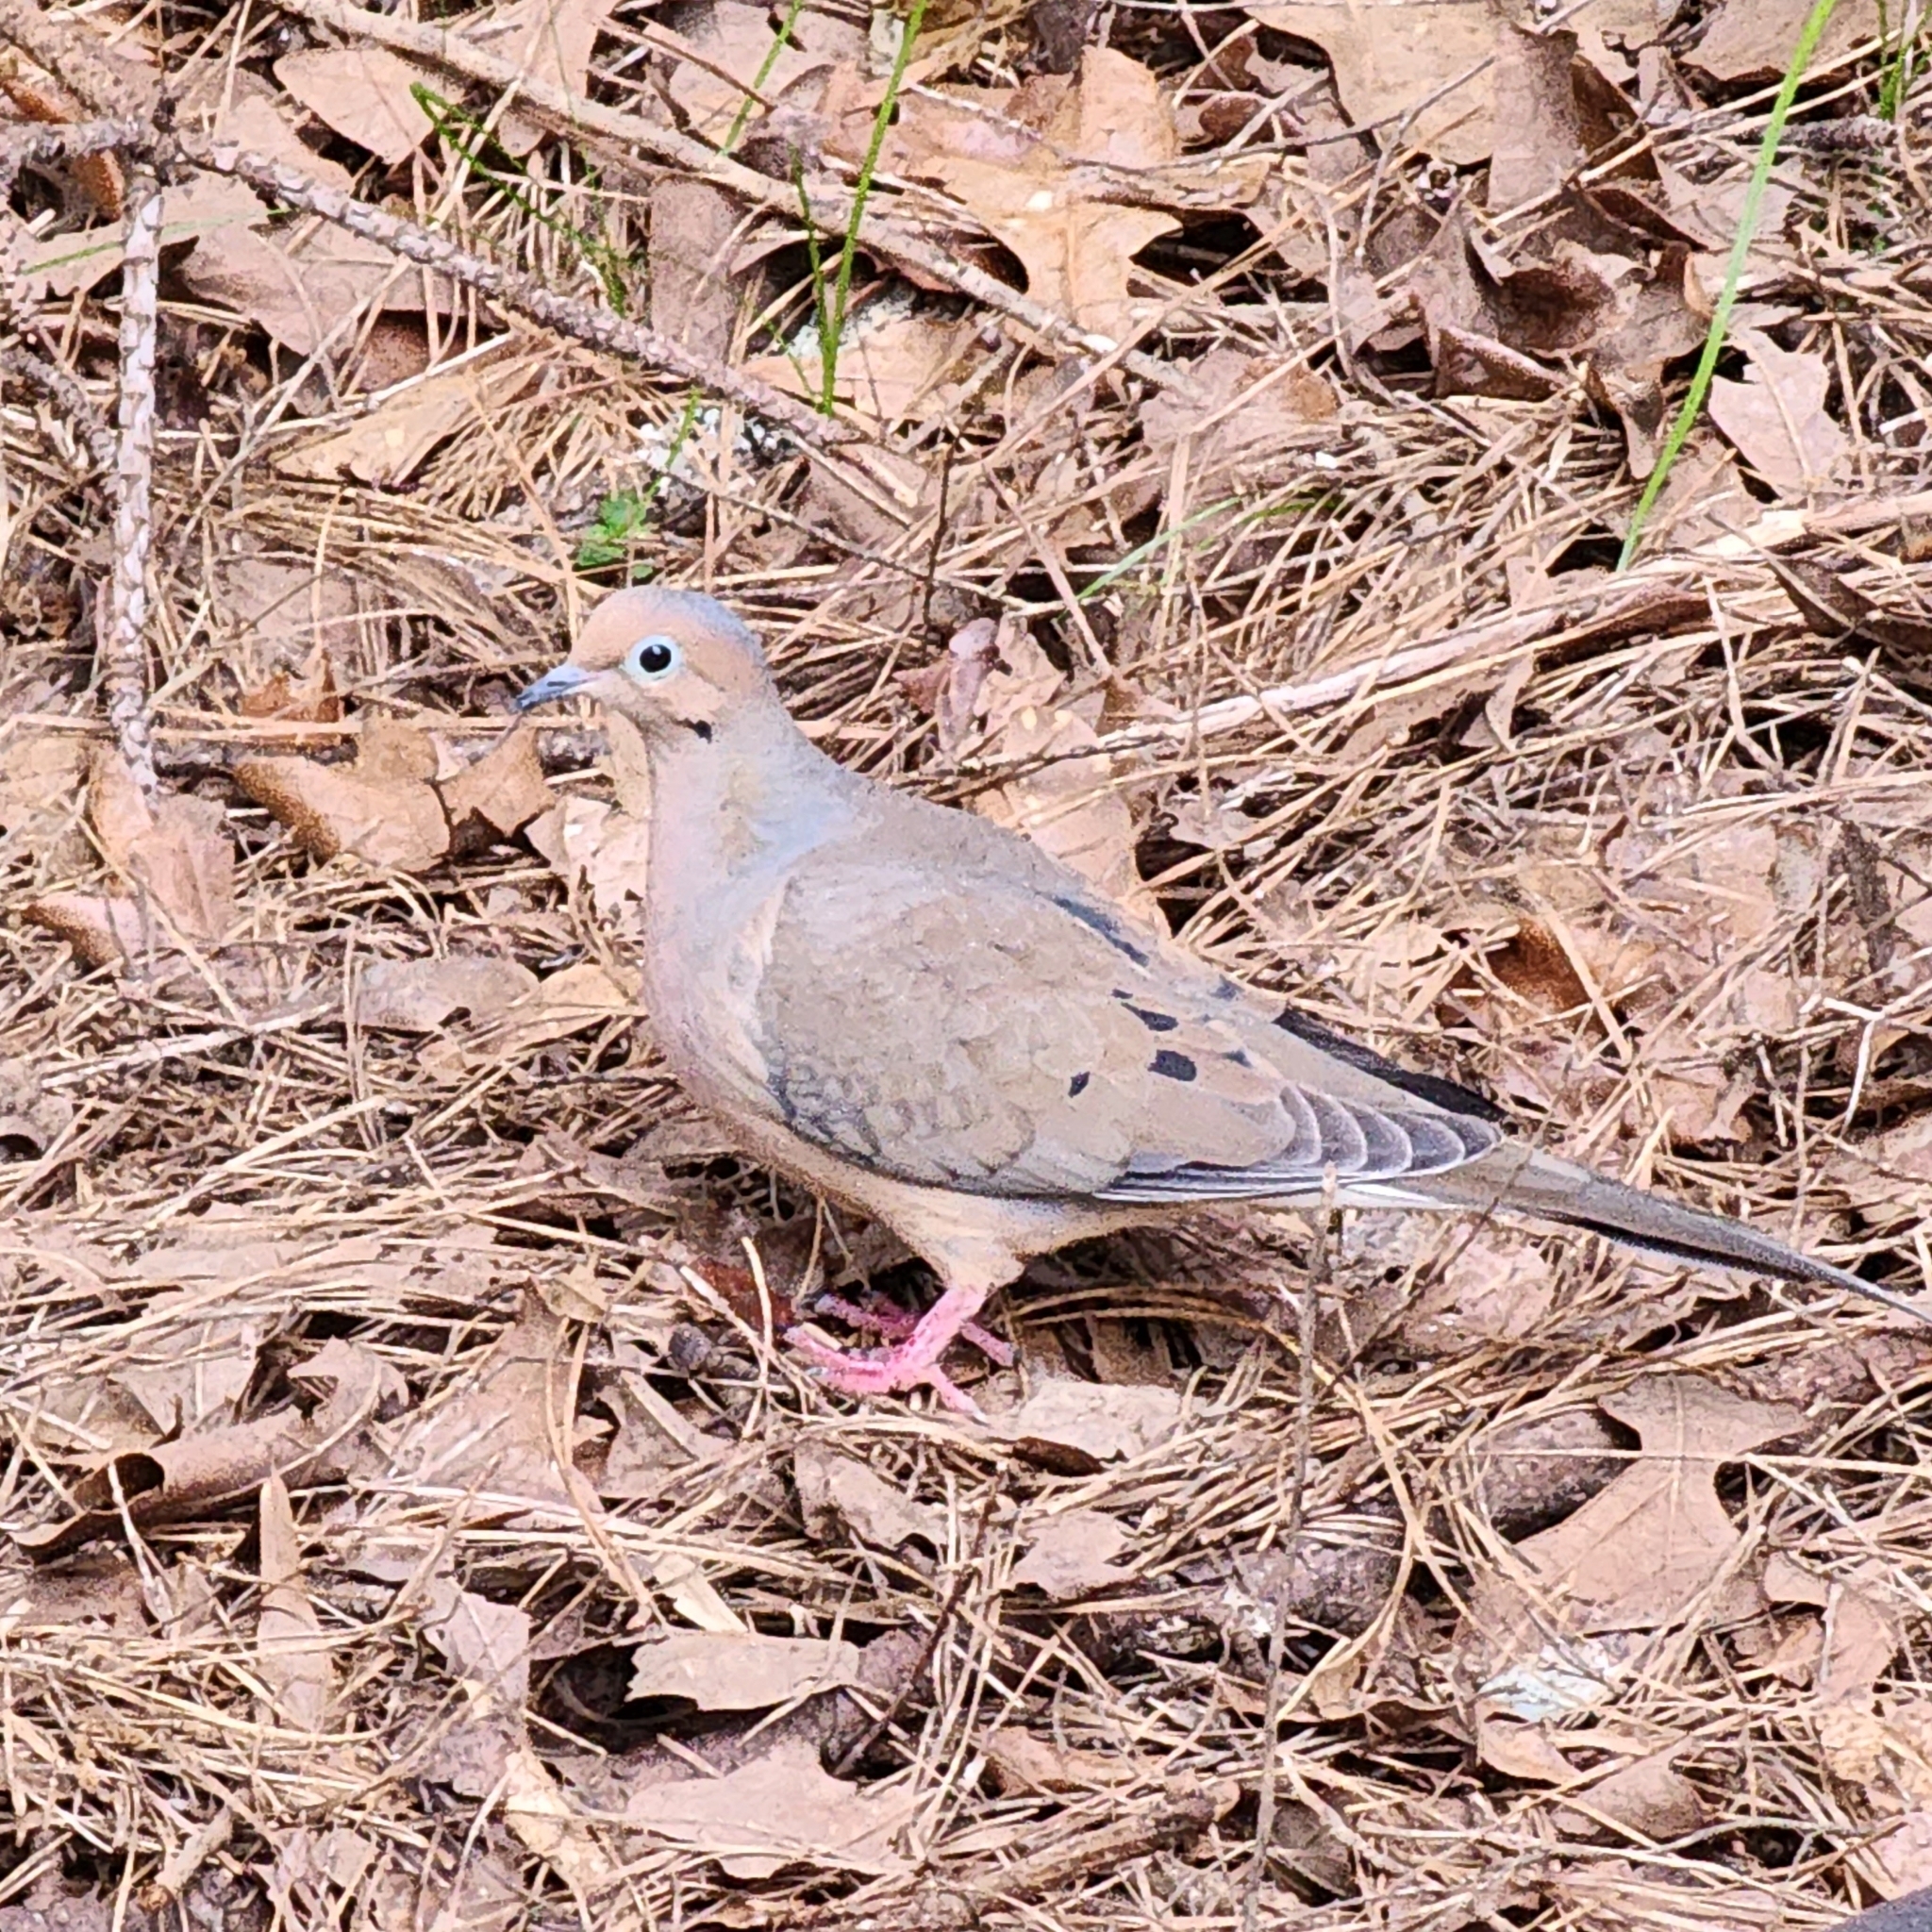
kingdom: Animalia
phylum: Chordata
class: Aves
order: Columbiformes
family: Columbidae
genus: Zenaida
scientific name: Zenaida macroura
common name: Mourning dove
